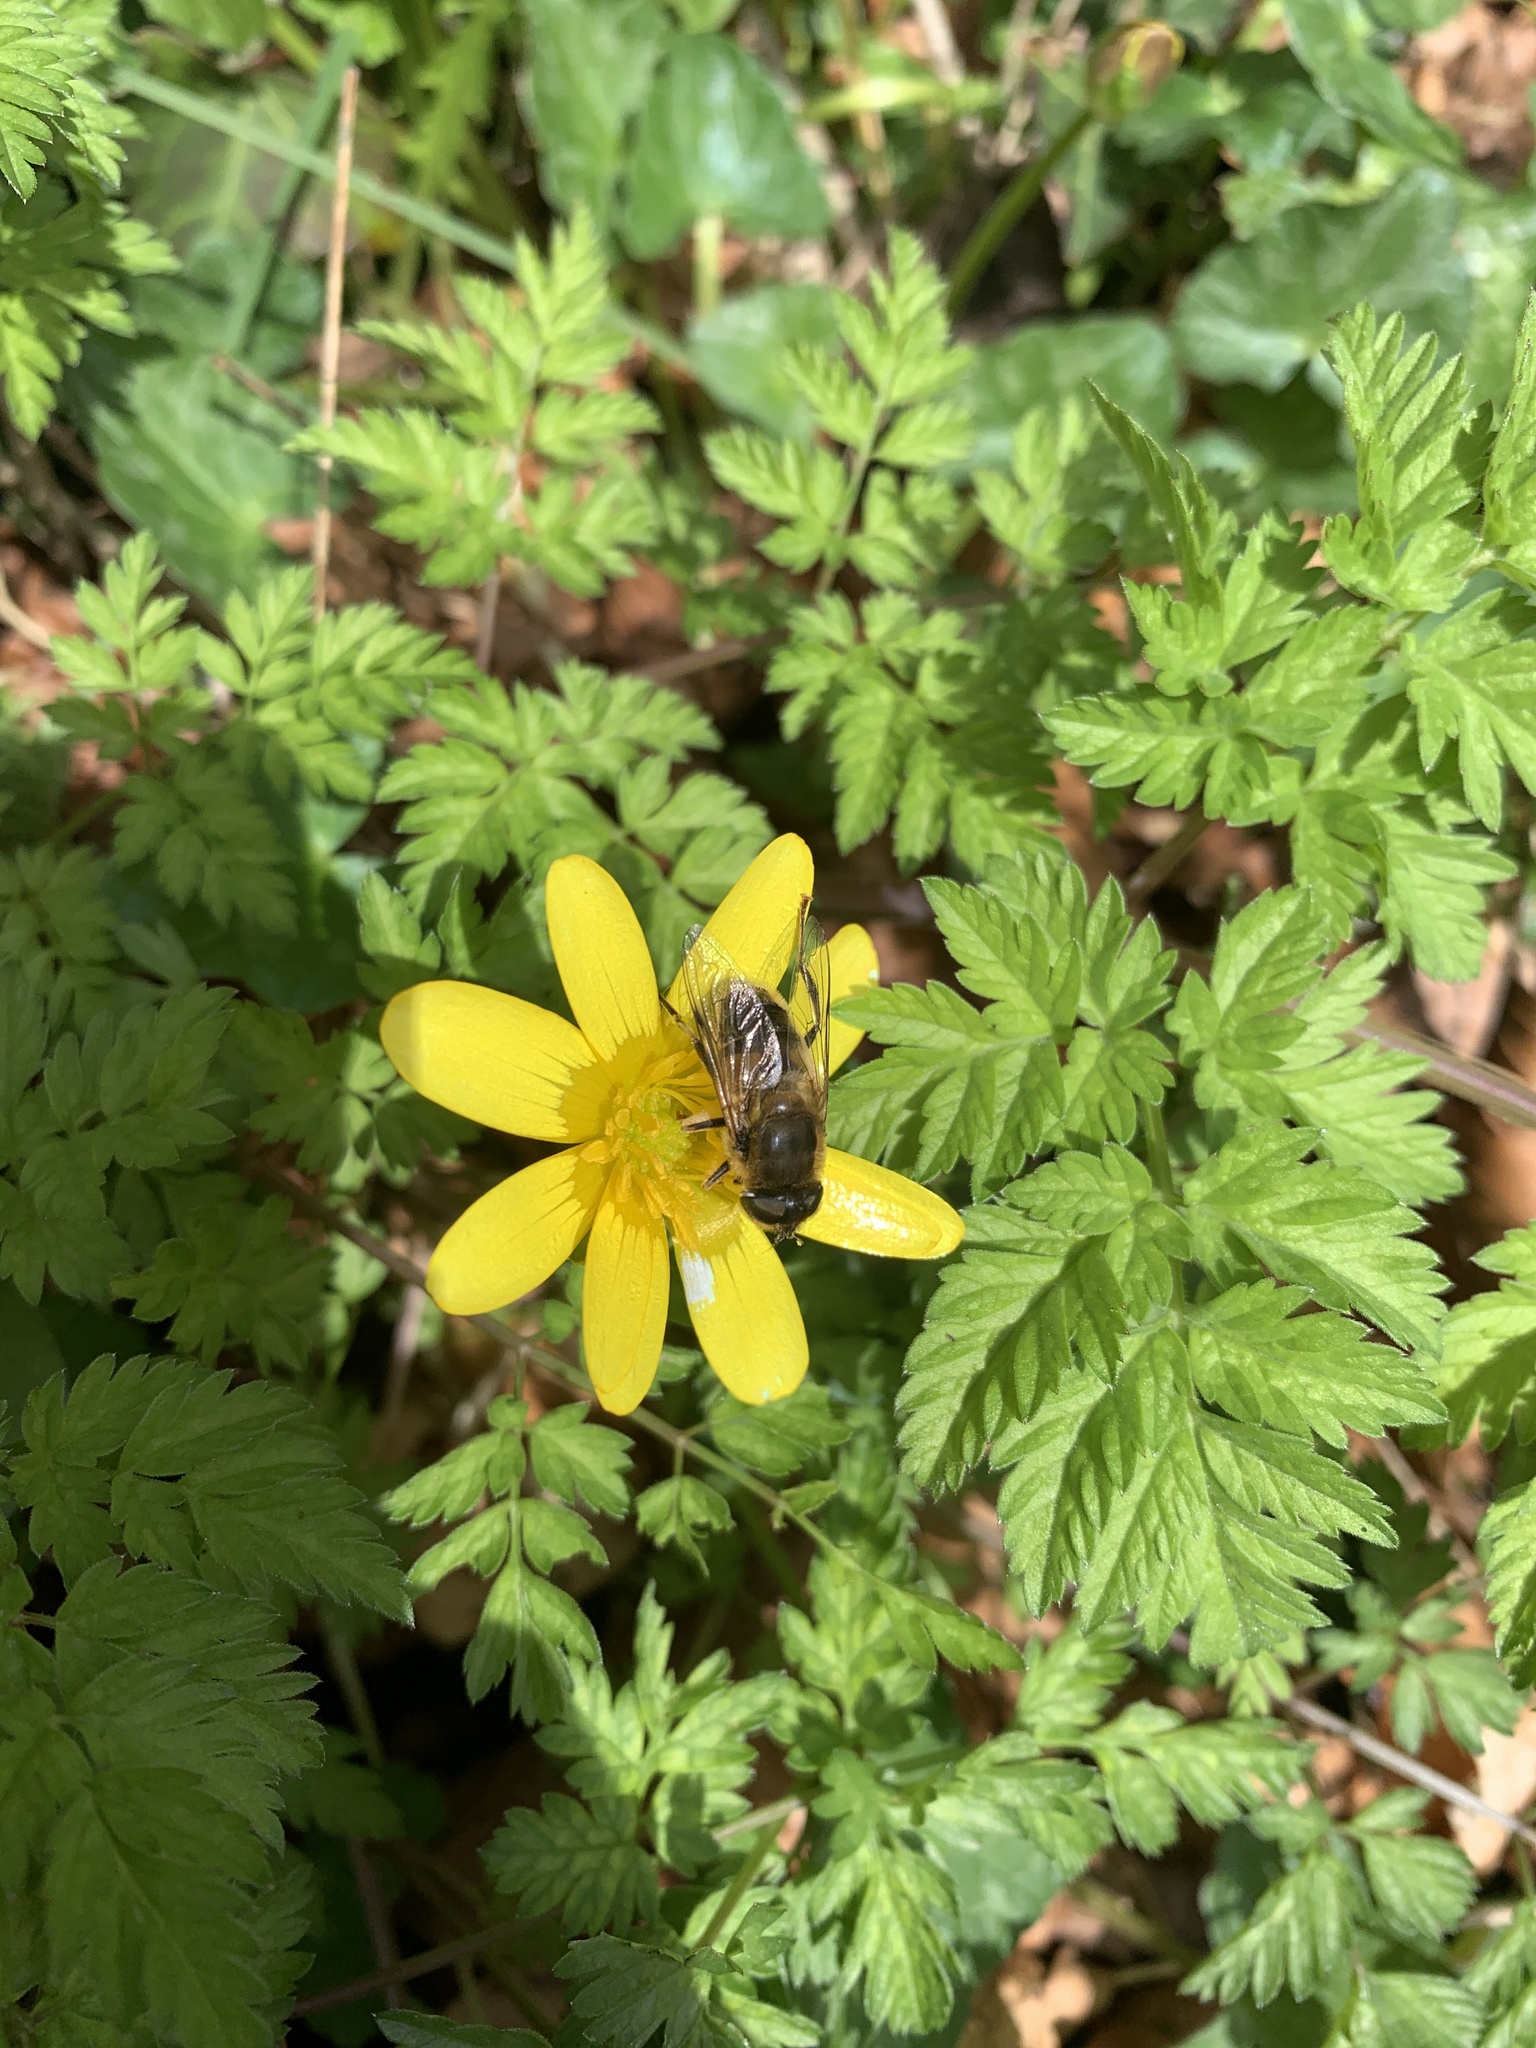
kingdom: Plantae
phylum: Tracheophyta
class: Magnoliopsida
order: Ranunculales
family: Ranunculaceae
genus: Ficaria
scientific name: Ficaria verna
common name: Lesser celandine
